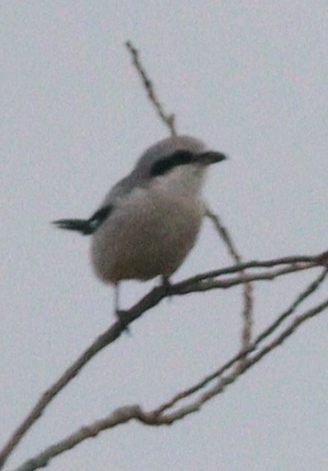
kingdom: Animalia
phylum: Chordata
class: Aves
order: Passeriformes
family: Laniidae
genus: Lanius
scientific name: Lanius excubitor
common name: Great grey shrike
